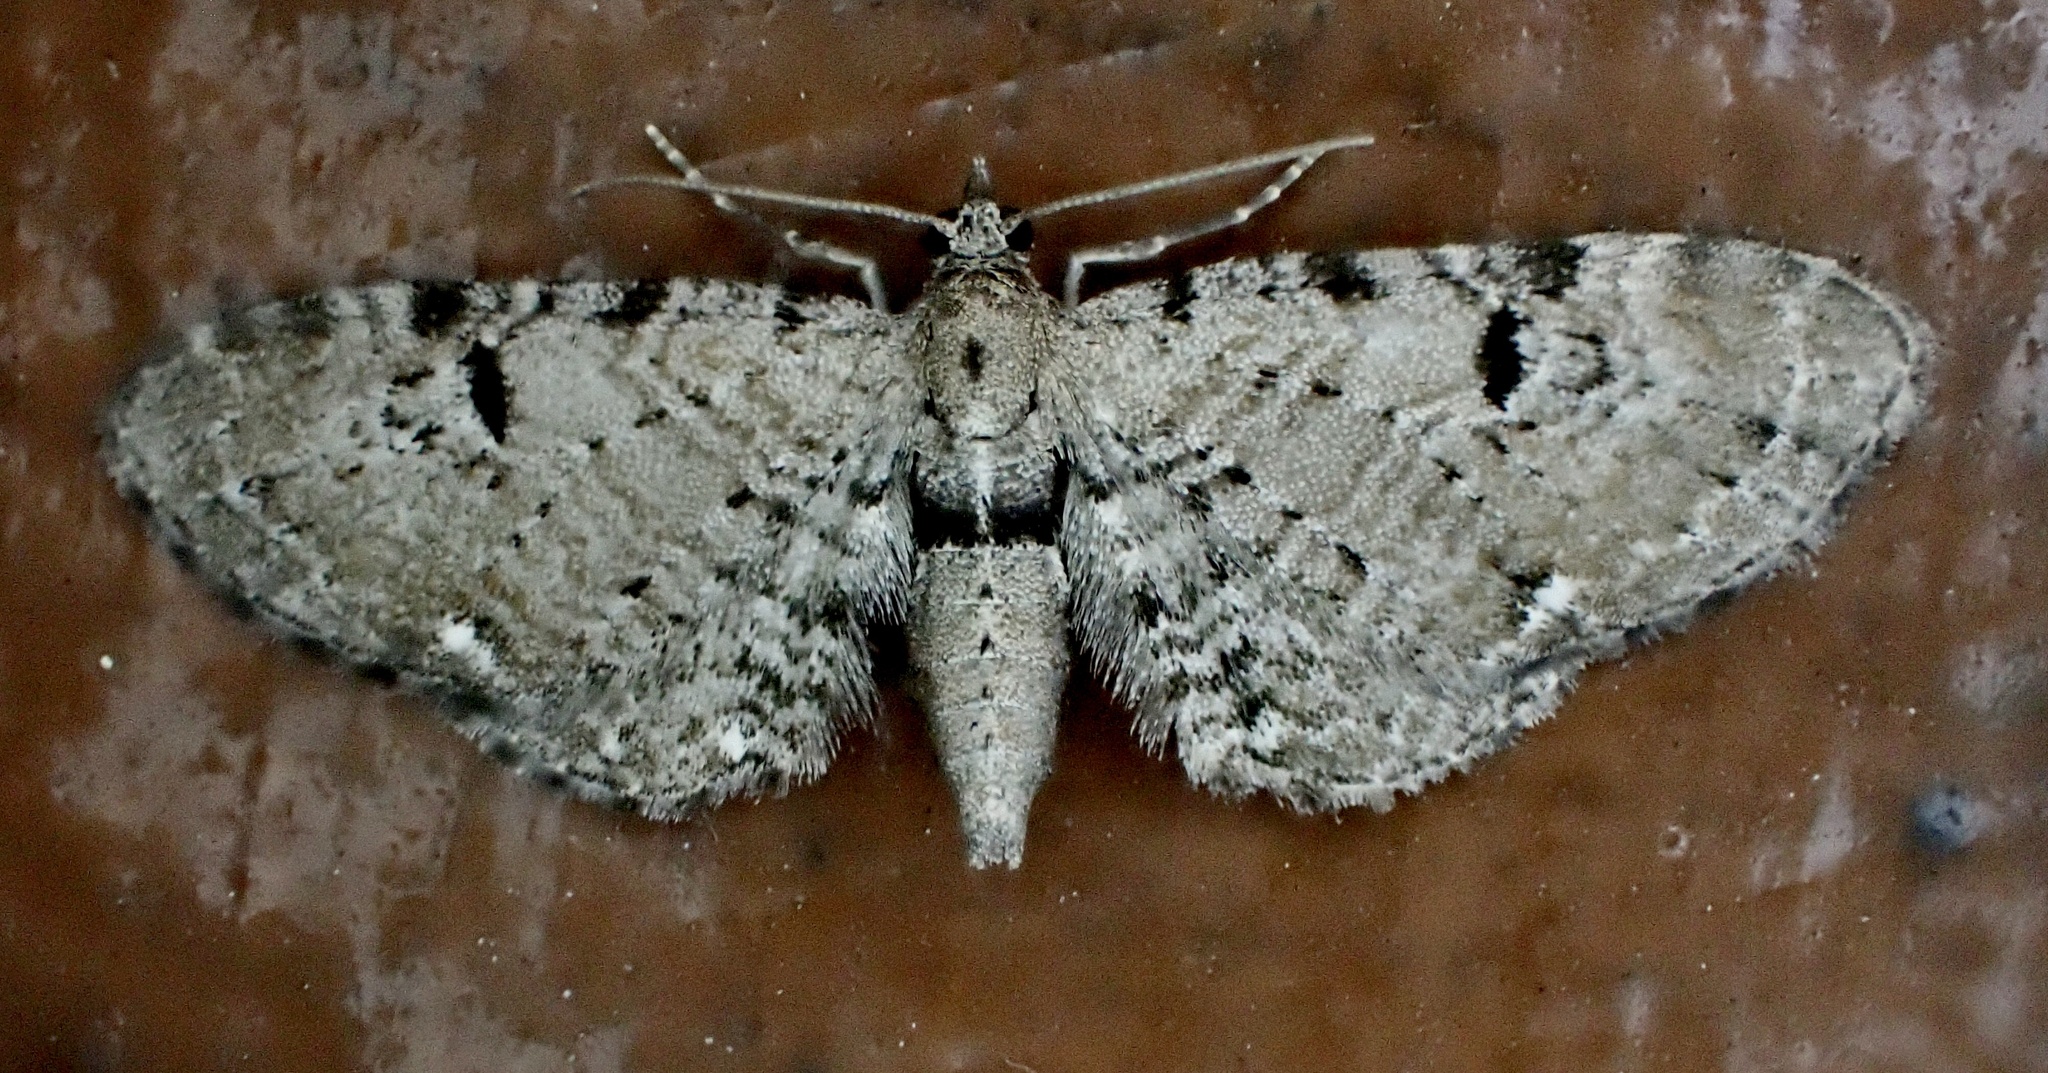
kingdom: Animalia
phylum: Arthropoda
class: Insecta
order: Lepidoptera
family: Geometridae
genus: Eupithecia
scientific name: Eupithecia absinthiata
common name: Wormwood pug
